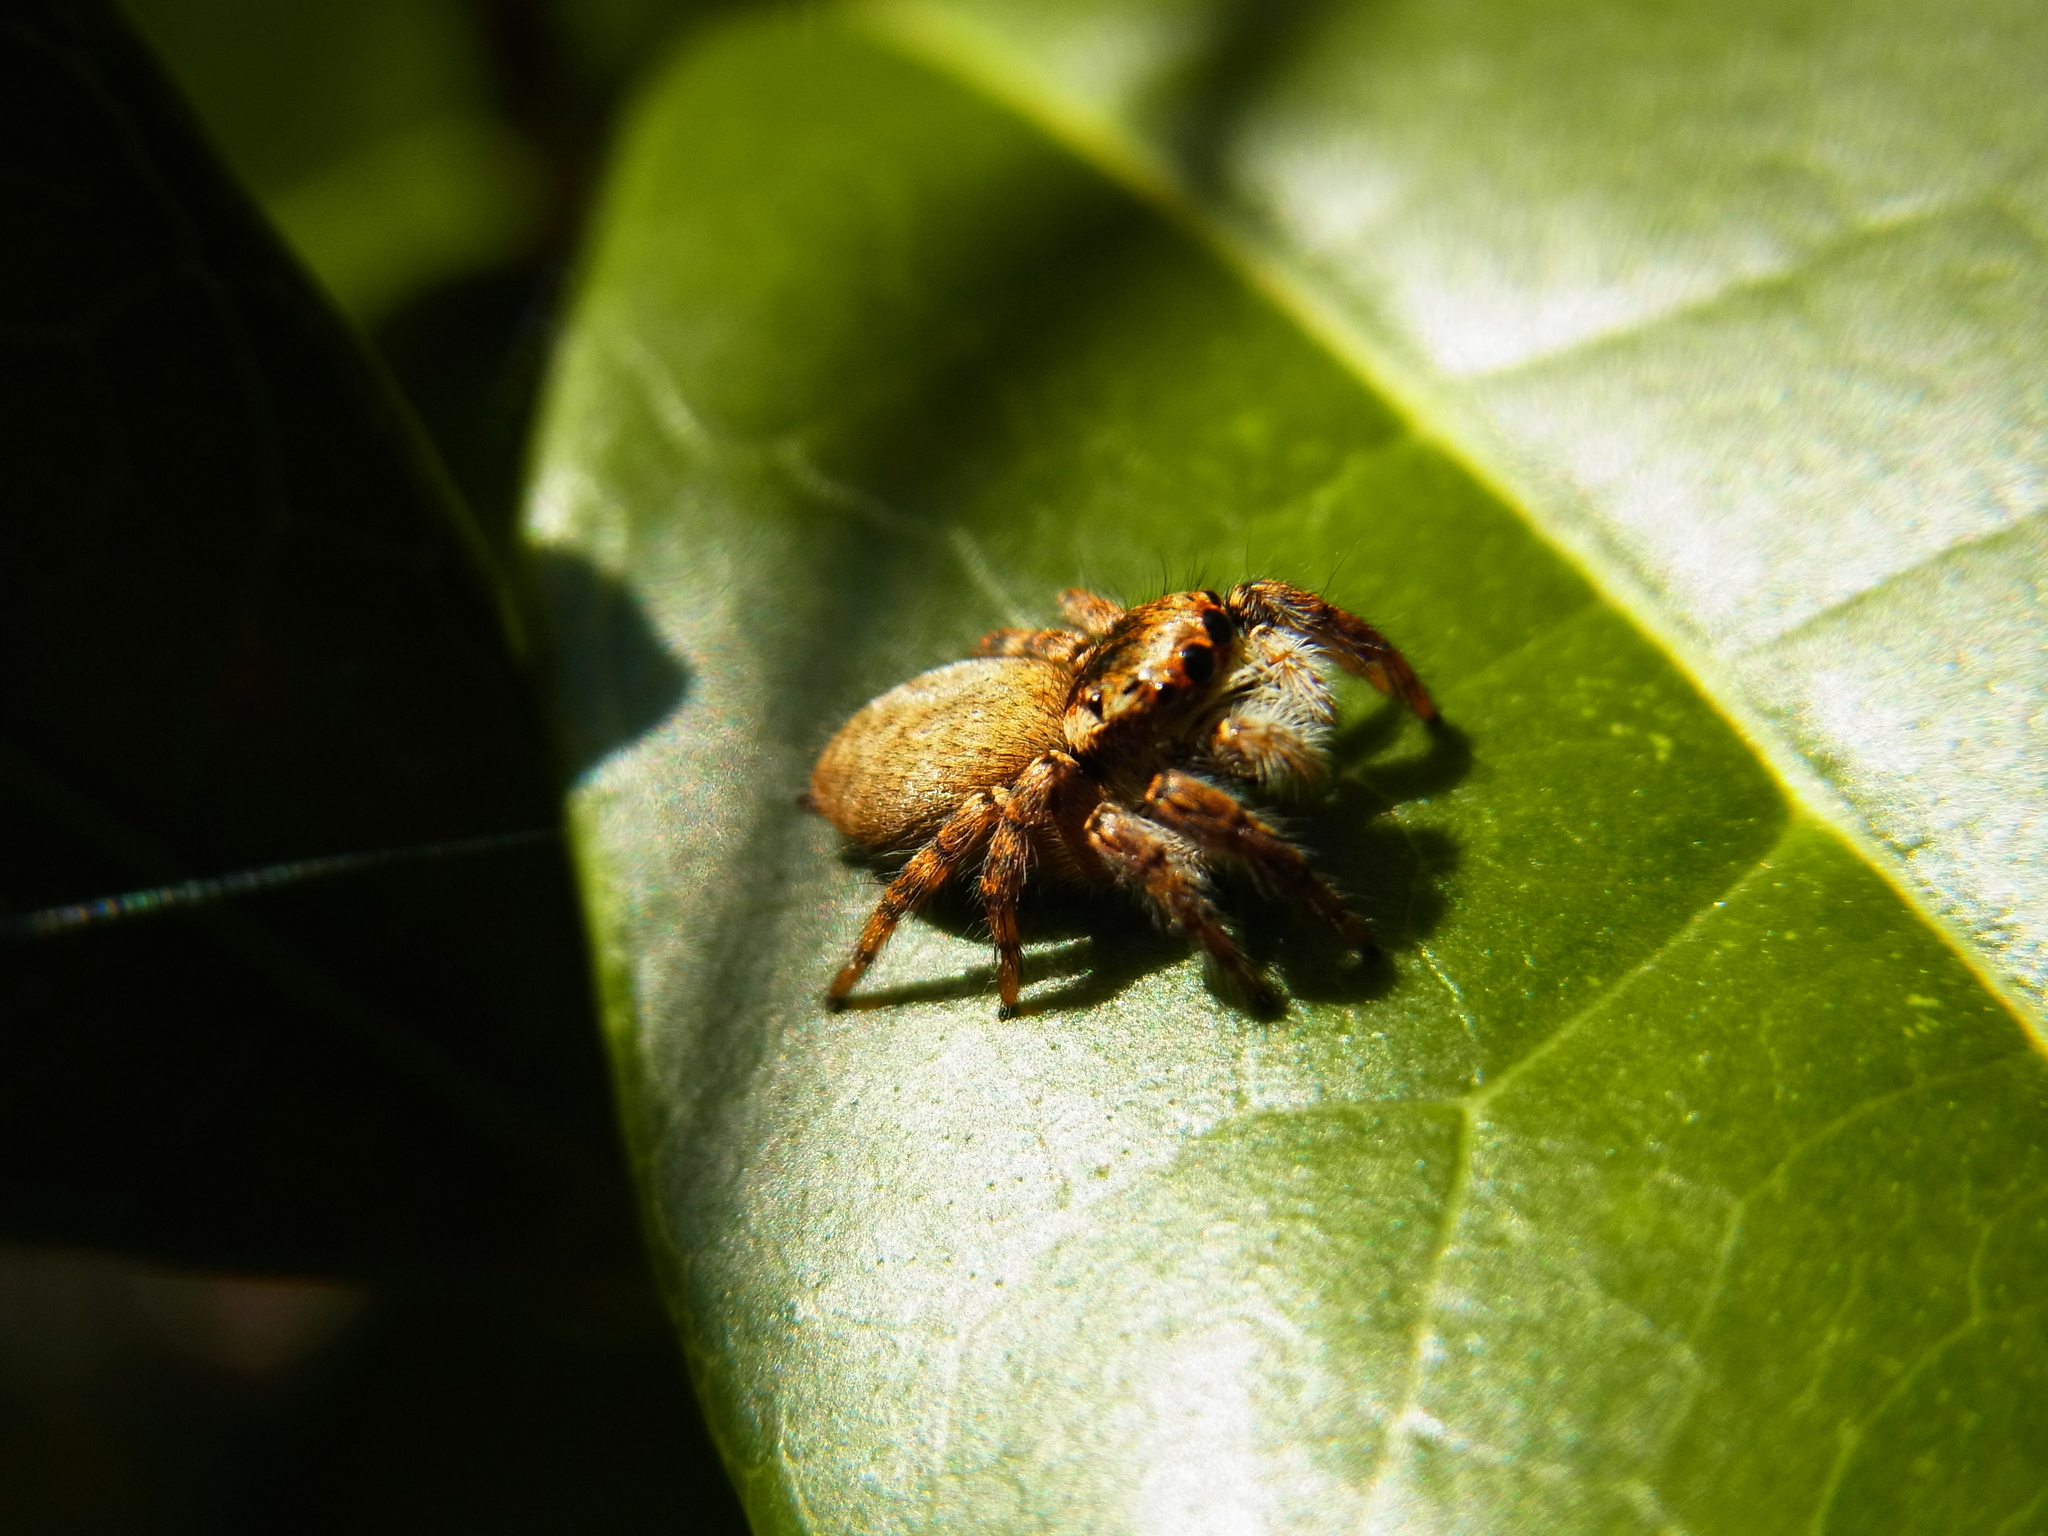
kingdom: Animalia
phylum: Arthropoda
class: Arachnida
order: Araneae
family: Salticidae
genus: Carrhotus
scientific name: Carrhotus xanthogramma
